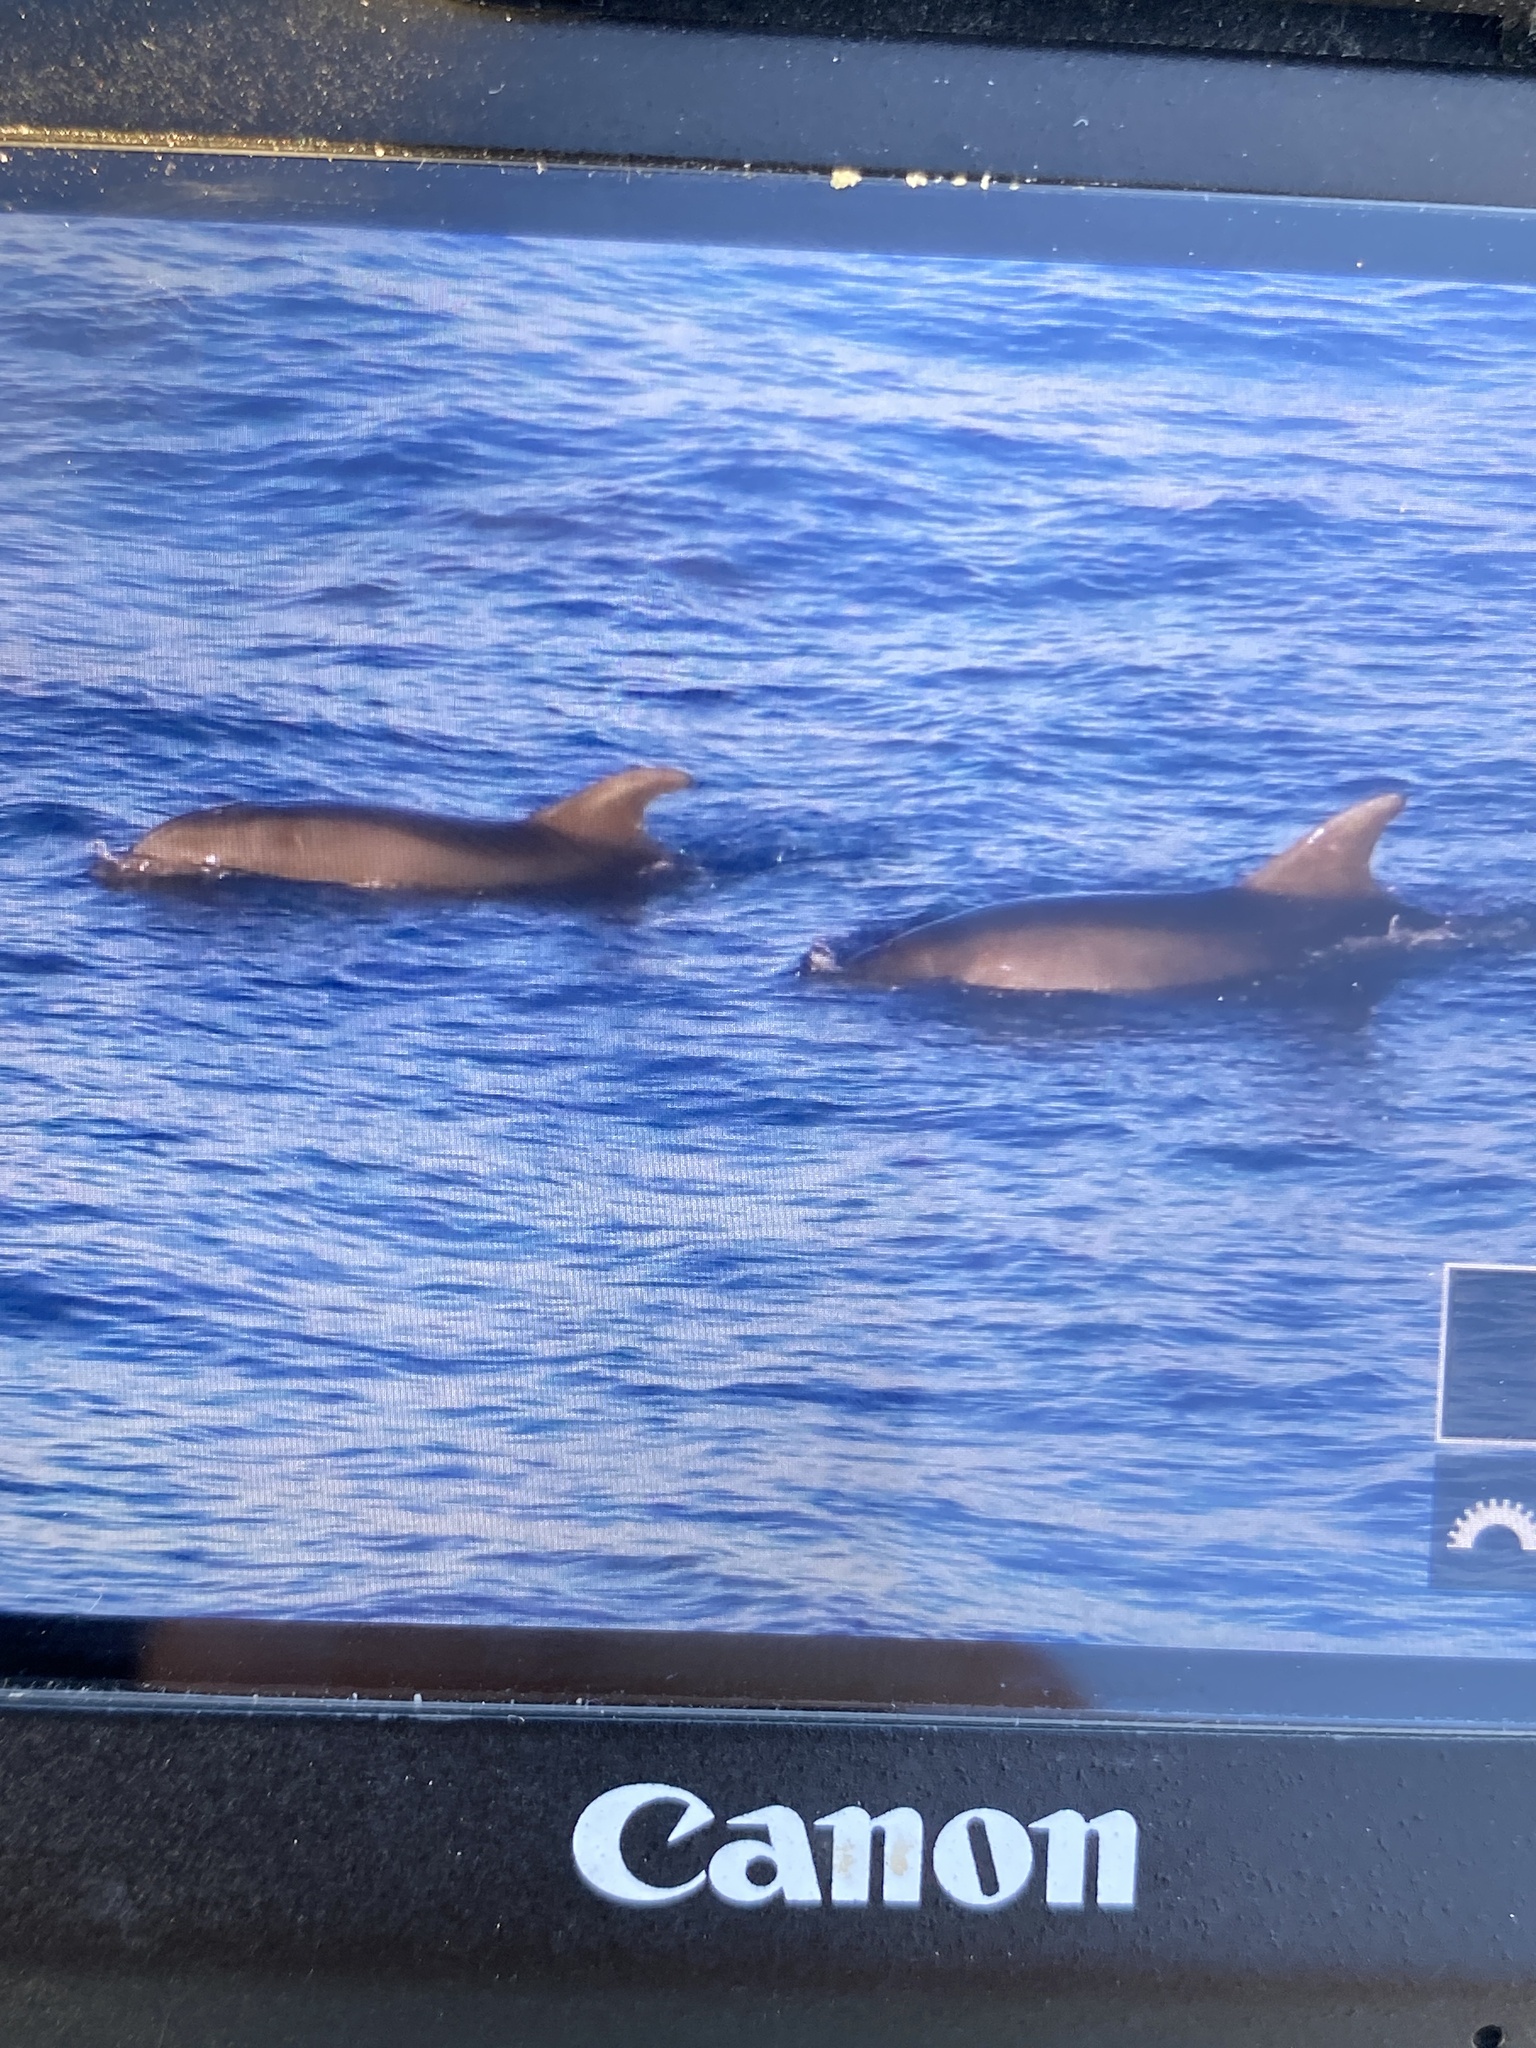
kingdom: Animalia
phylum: Chordata
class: Mammalia
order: Cetacea
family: Delphinidae
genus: Tursiops
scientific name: Tursiops truncatus
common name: Bottlenose dolphin
